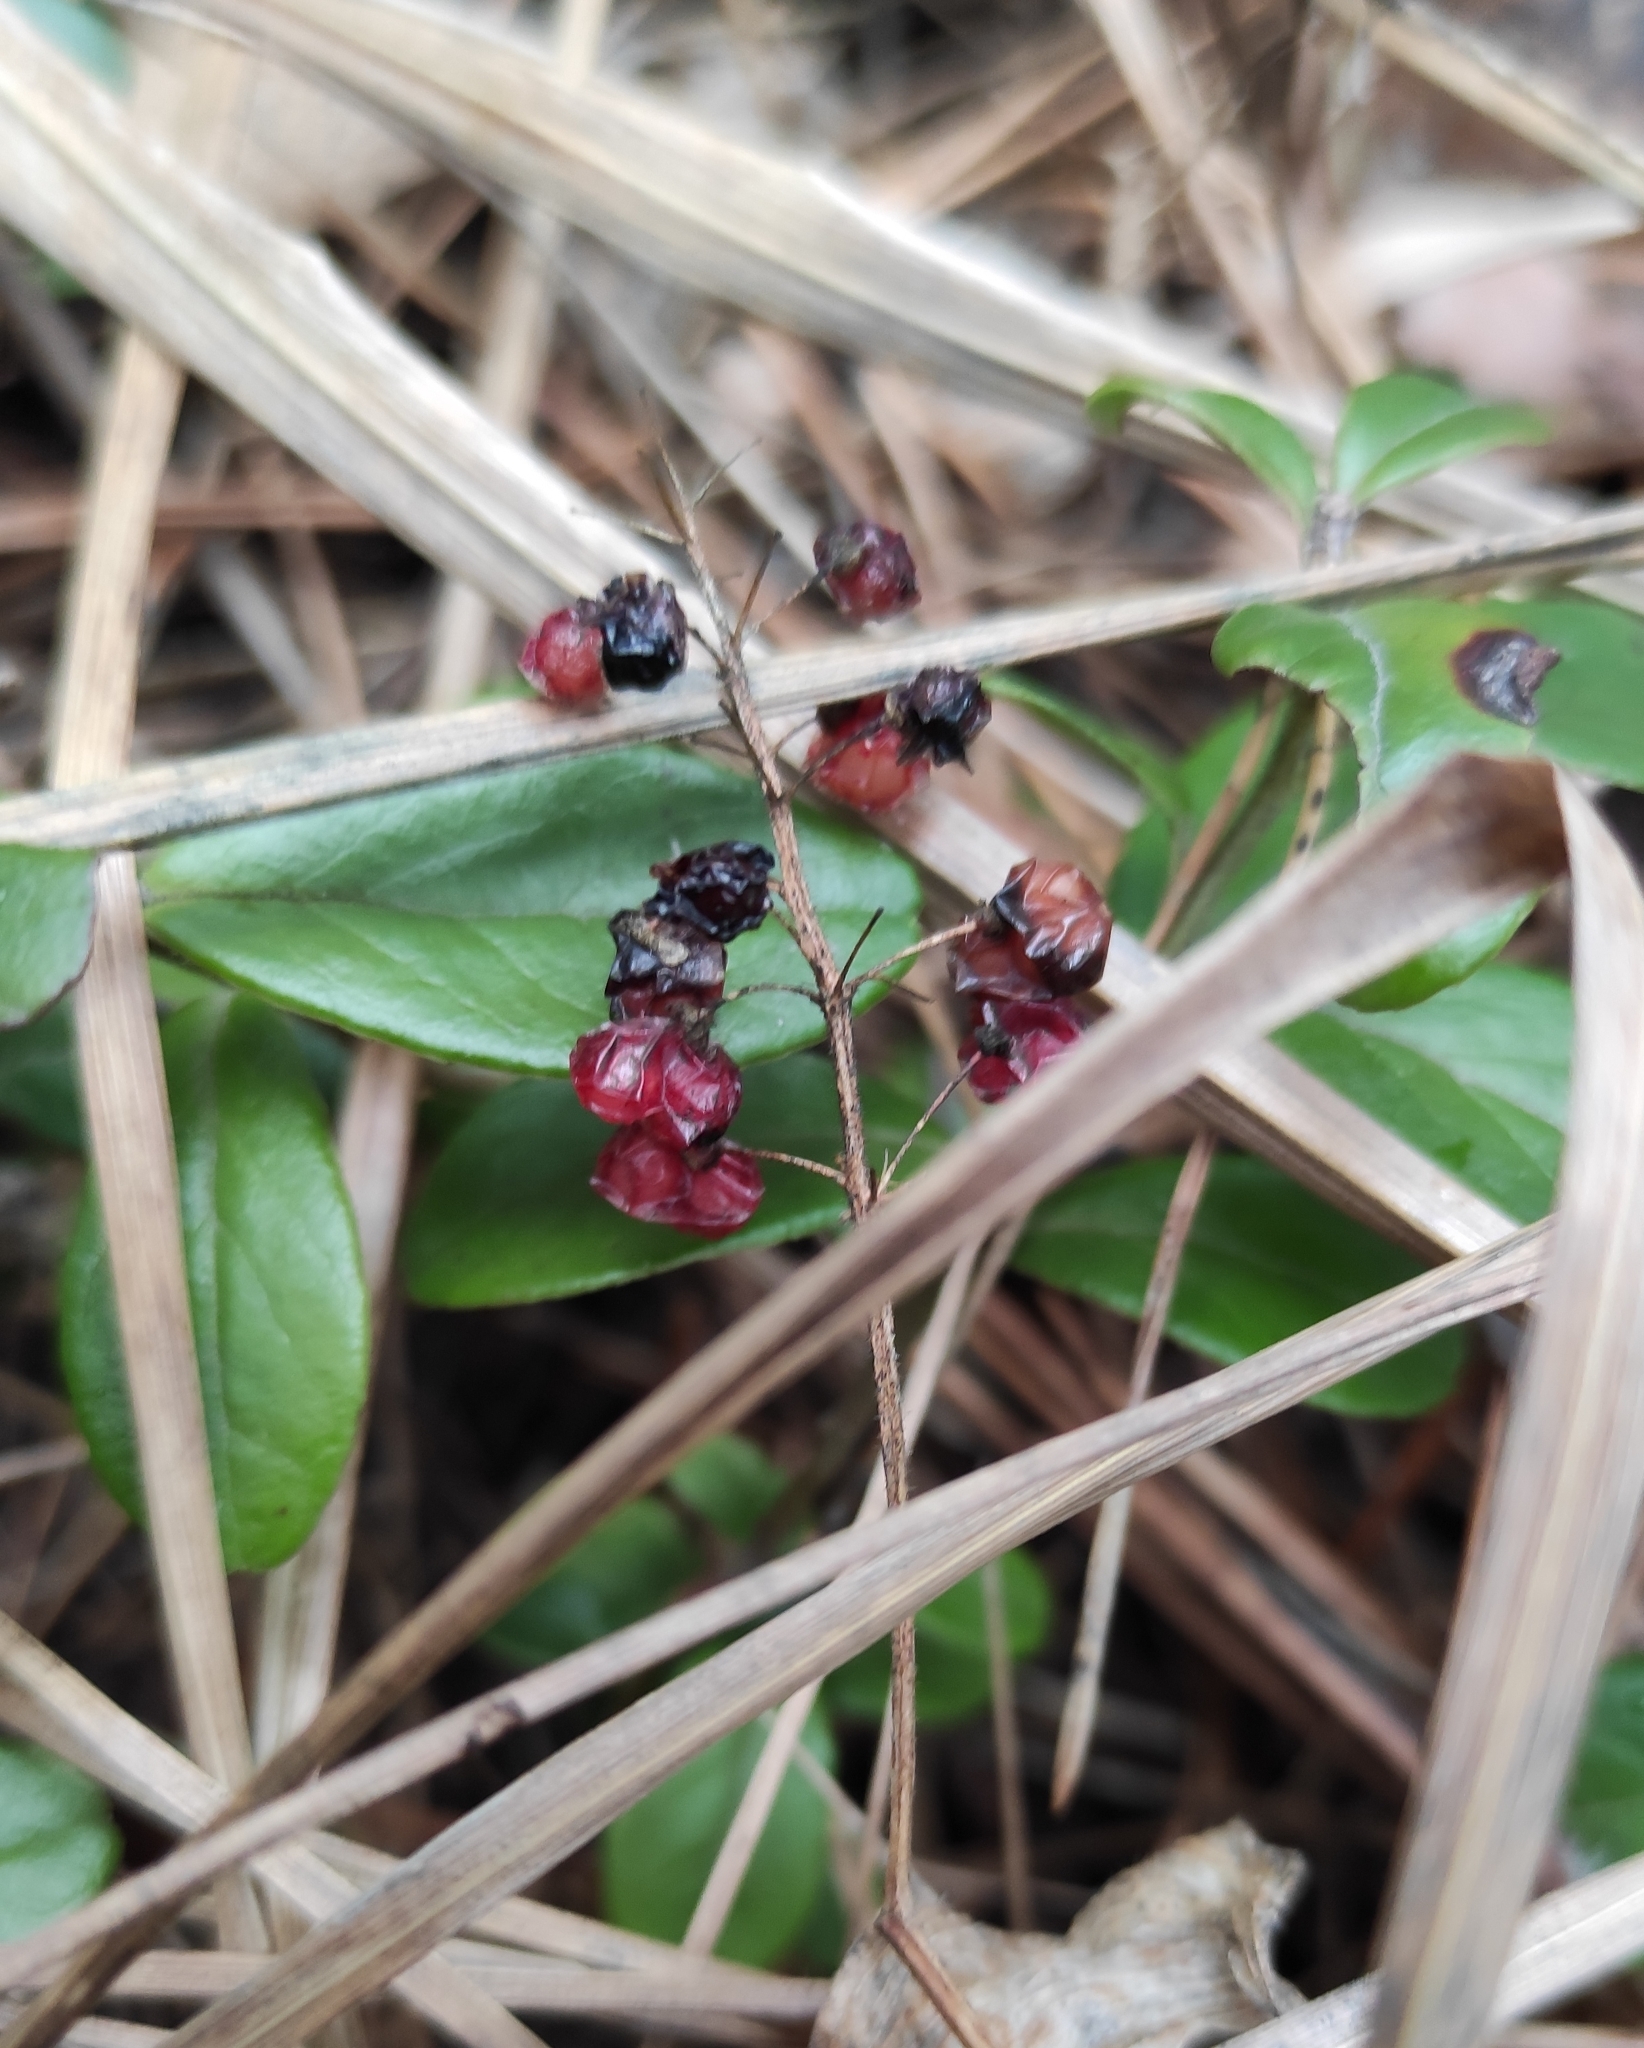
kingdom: Plantae
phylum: Tracheophyta
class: Liliopsida
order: Asparagales
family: Asparagaceae
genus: Maianthemum
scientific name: Maianthemum bifolium
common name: May lily
